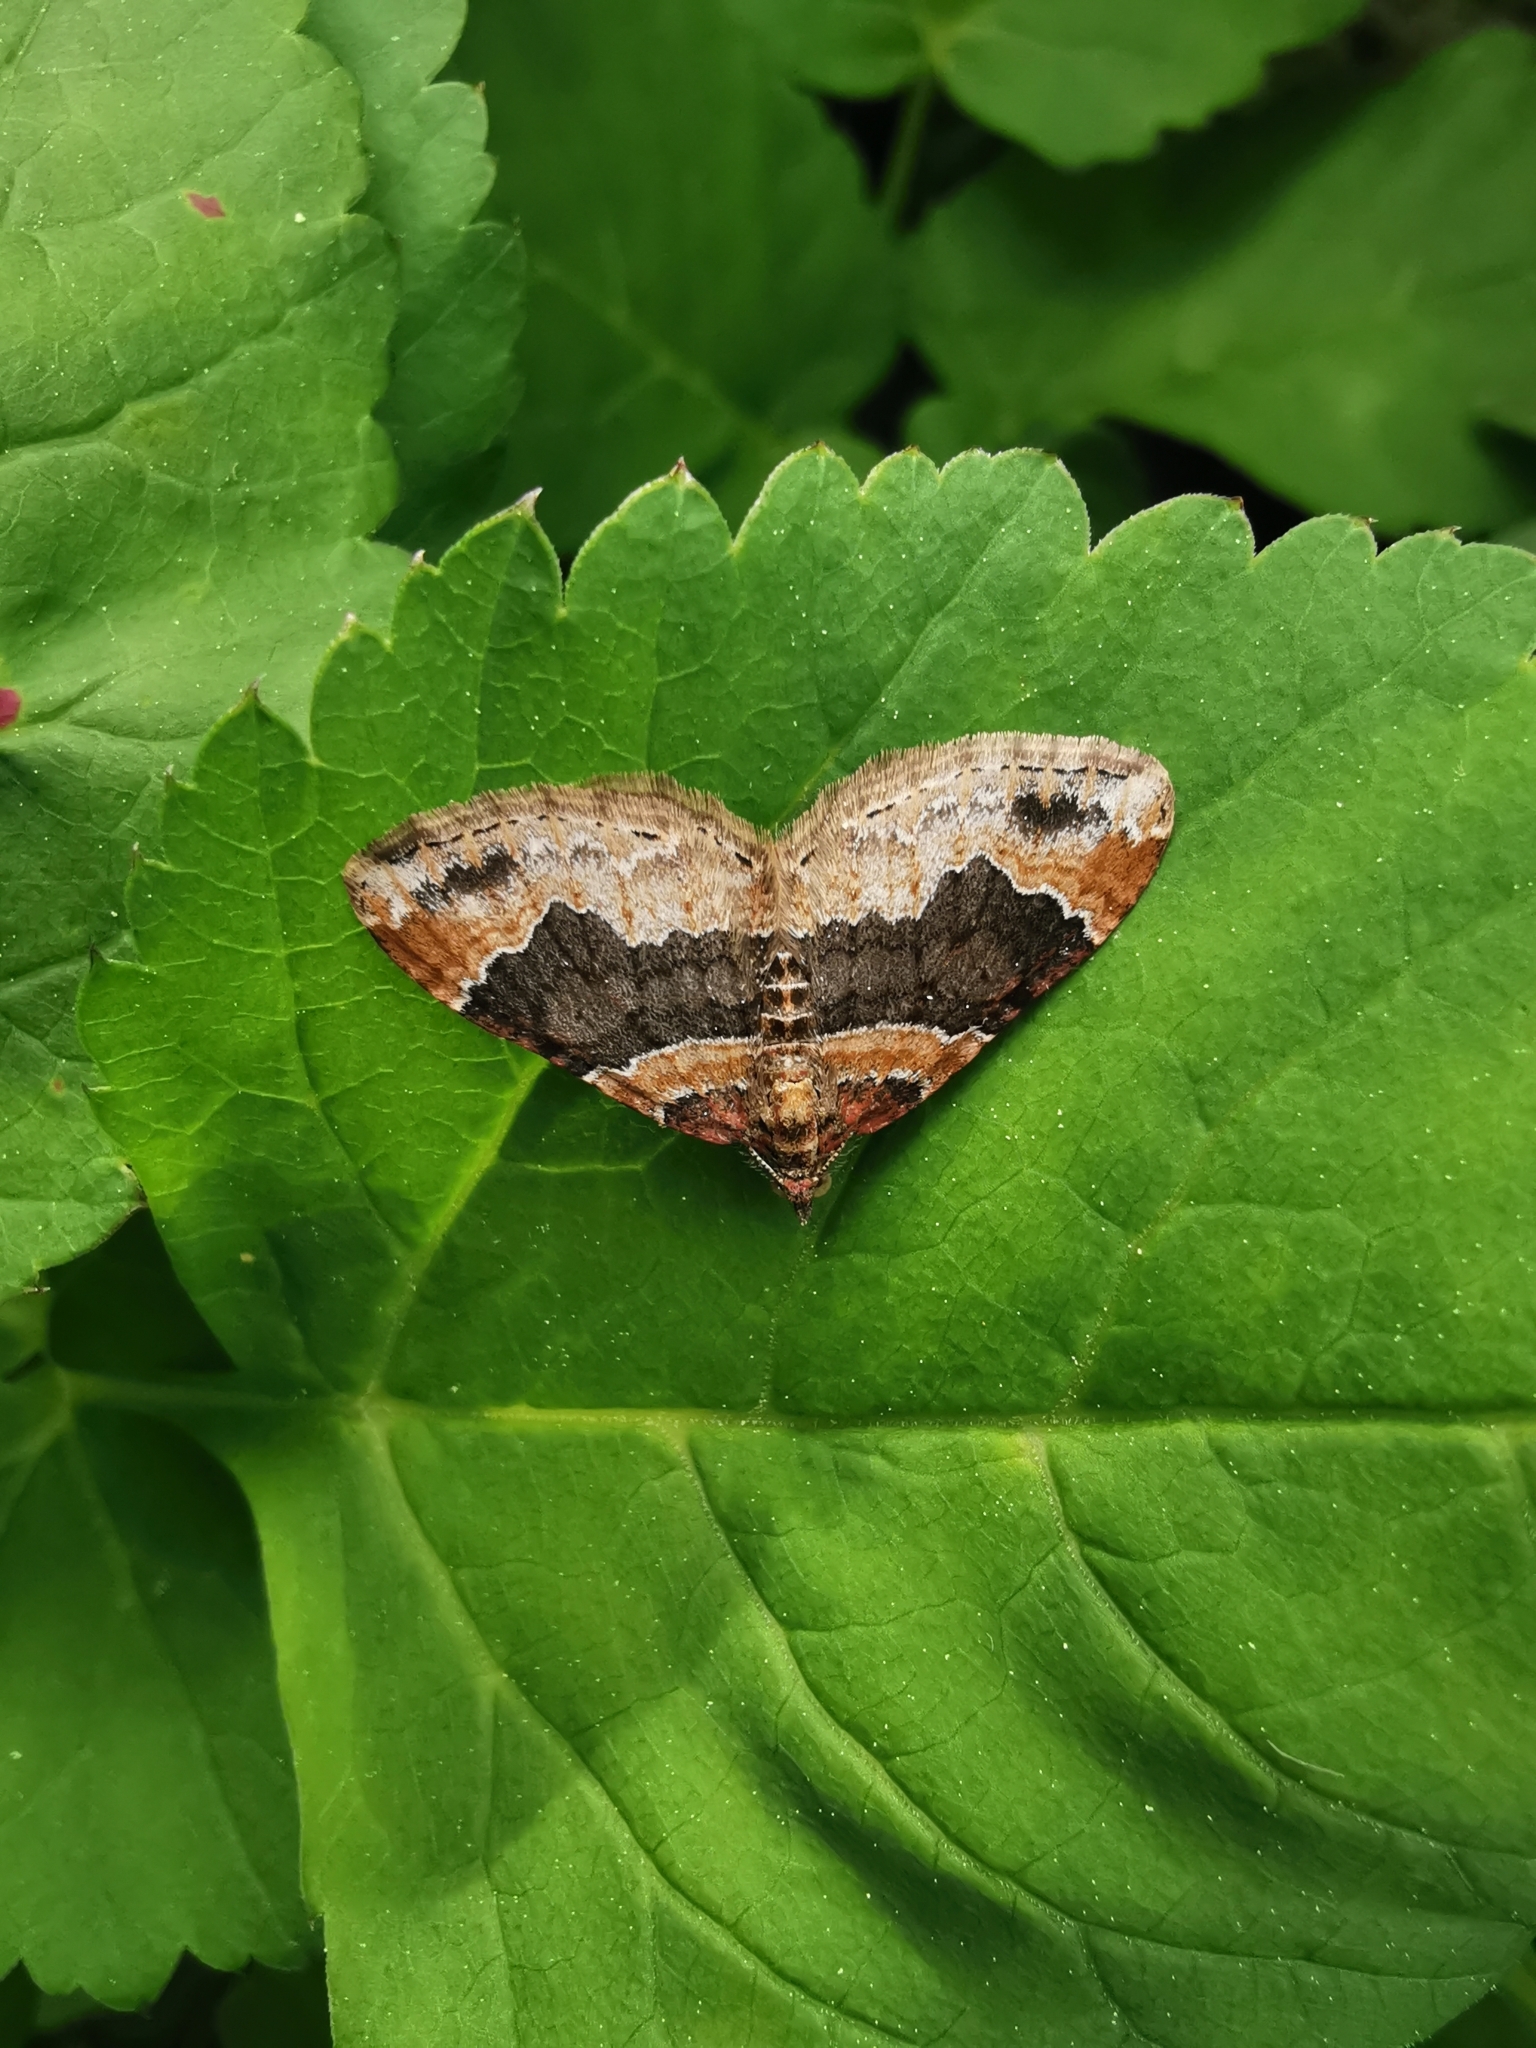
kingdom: Animalia
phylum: Arthropoda
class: Insecta
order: Lepidoptera
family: Geometridae
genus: Xanthorhoe
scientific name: Xanthorhoe ferrugata
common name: Dark-barred twin-spot carpet
